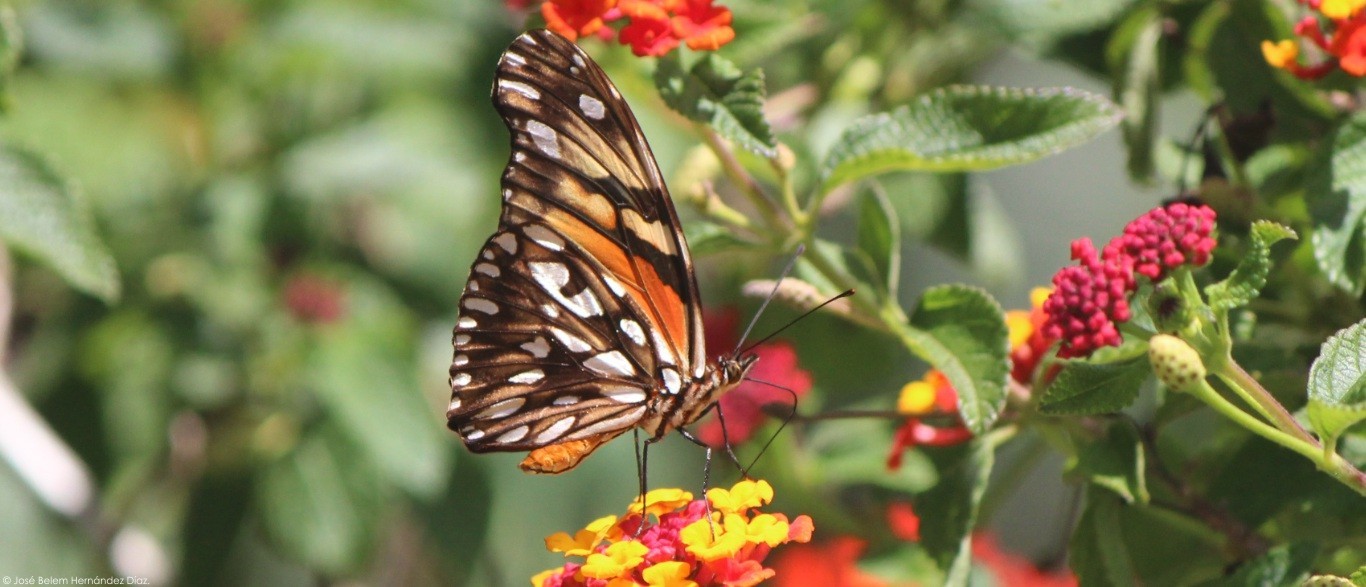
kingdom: Animalia
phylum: Arthropoda
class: Insecta
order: Lepidoptera
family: Nymphalidae
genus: Dione
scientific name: Dione juno
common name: Juno silverspot
